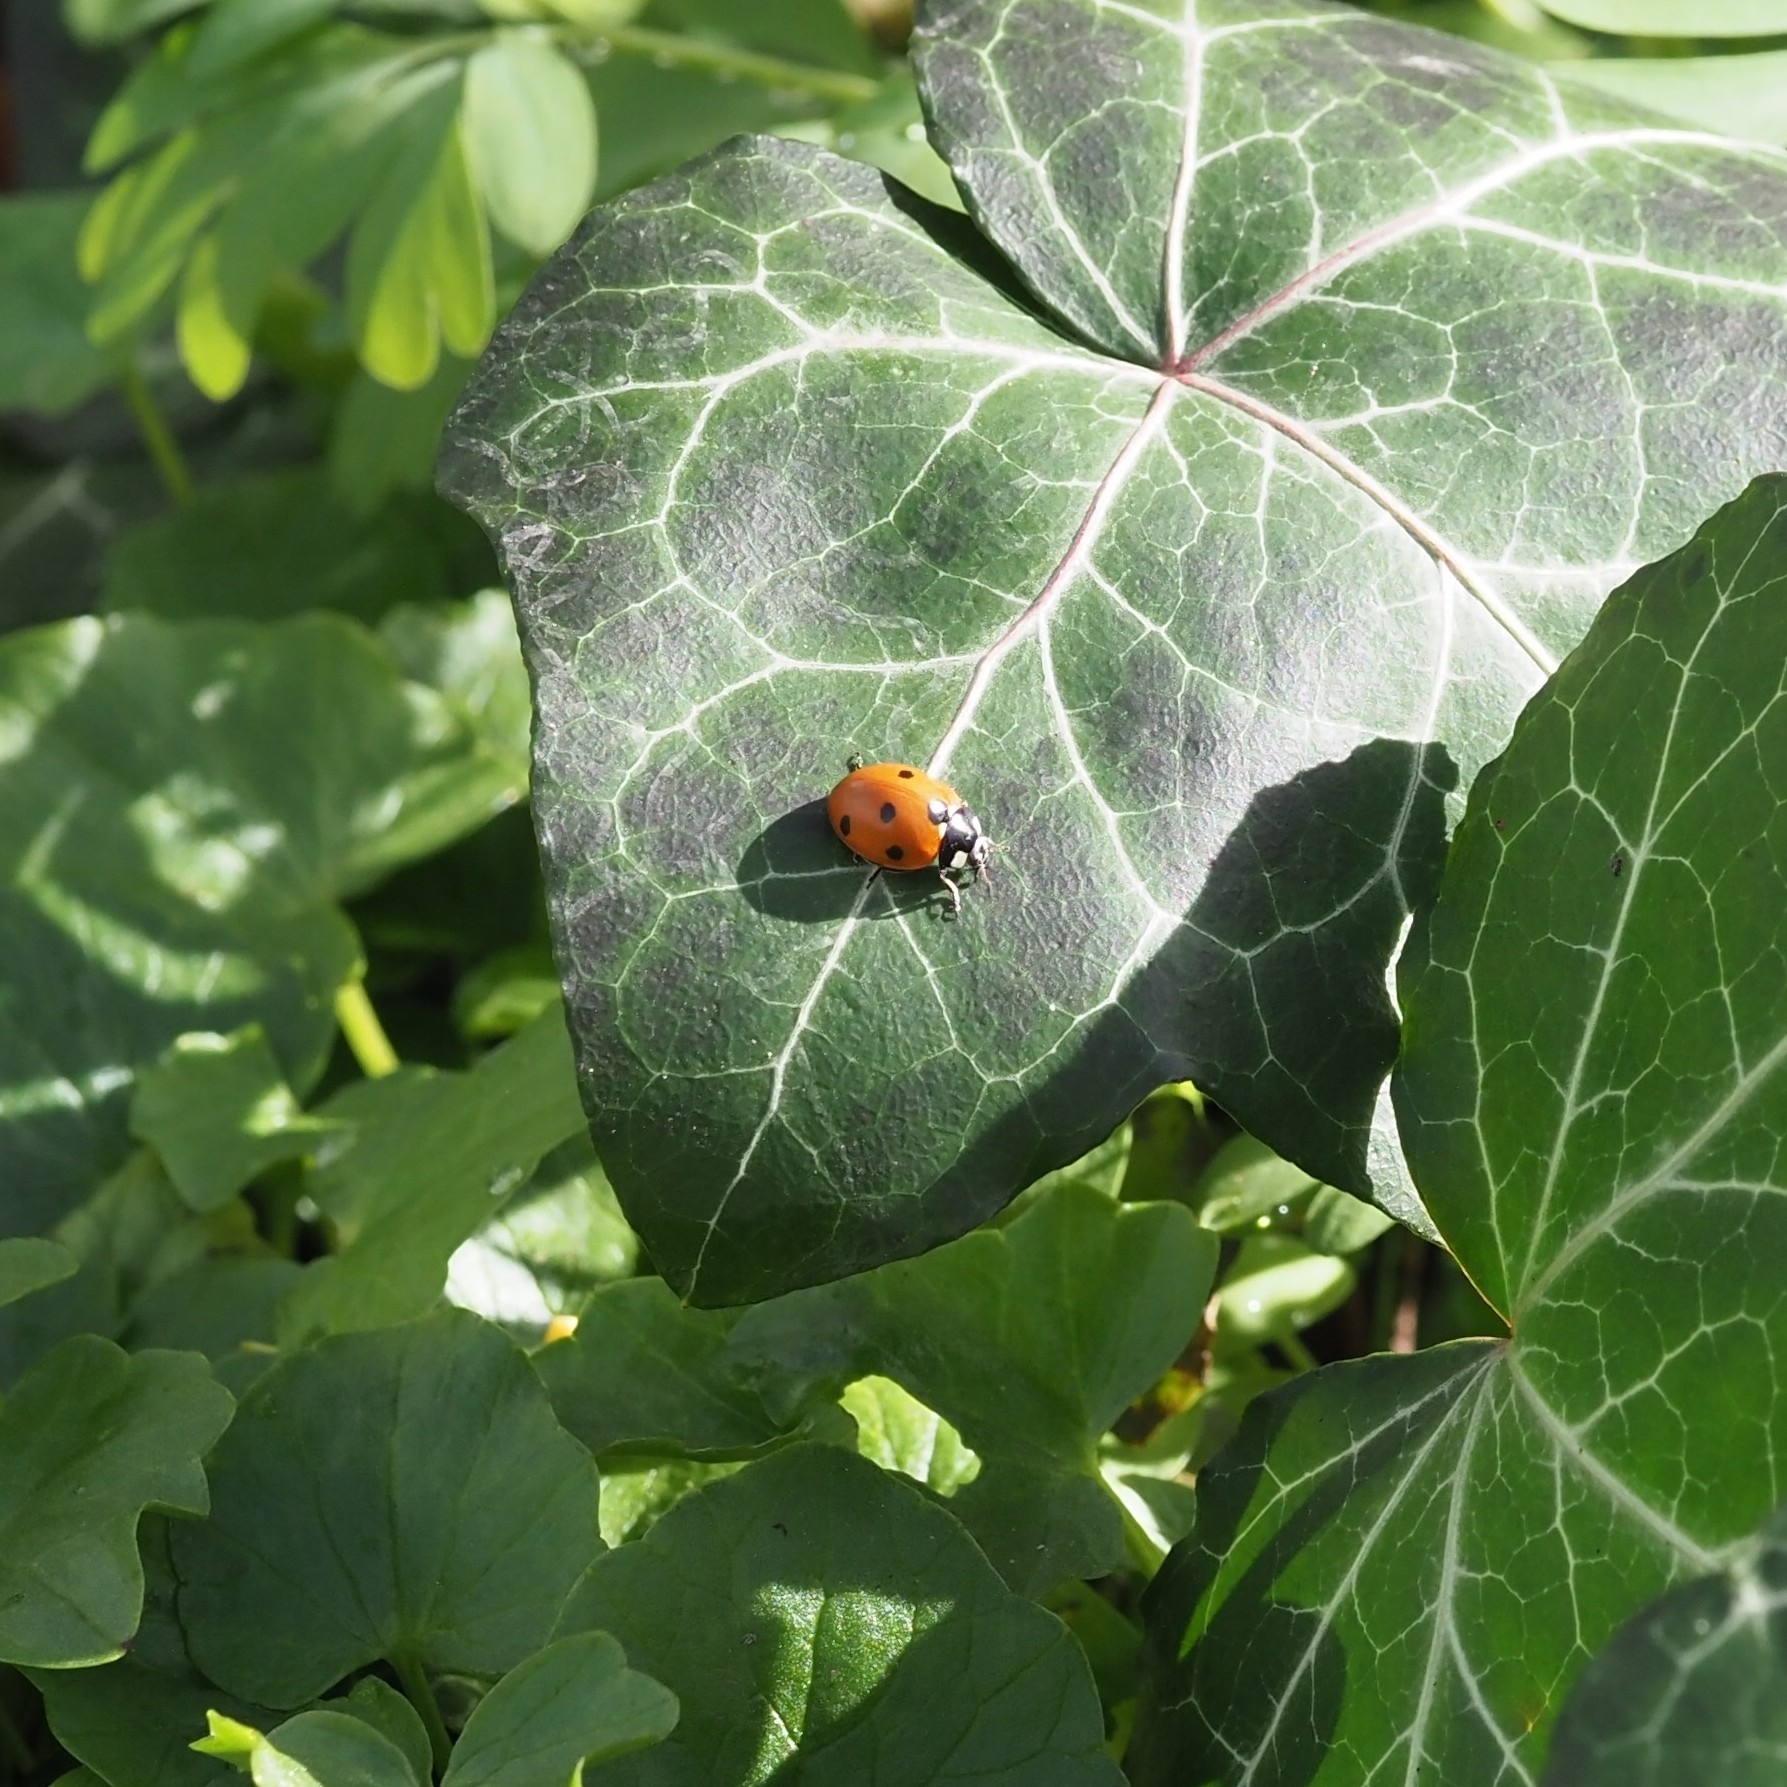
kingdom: Animalia
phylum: Arthropoda
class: Insecta
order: Coleoptera
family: Coccinellidae
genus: Coccinella
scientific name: Coccinella septempunctata
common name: Sevenspotted lady beetle
